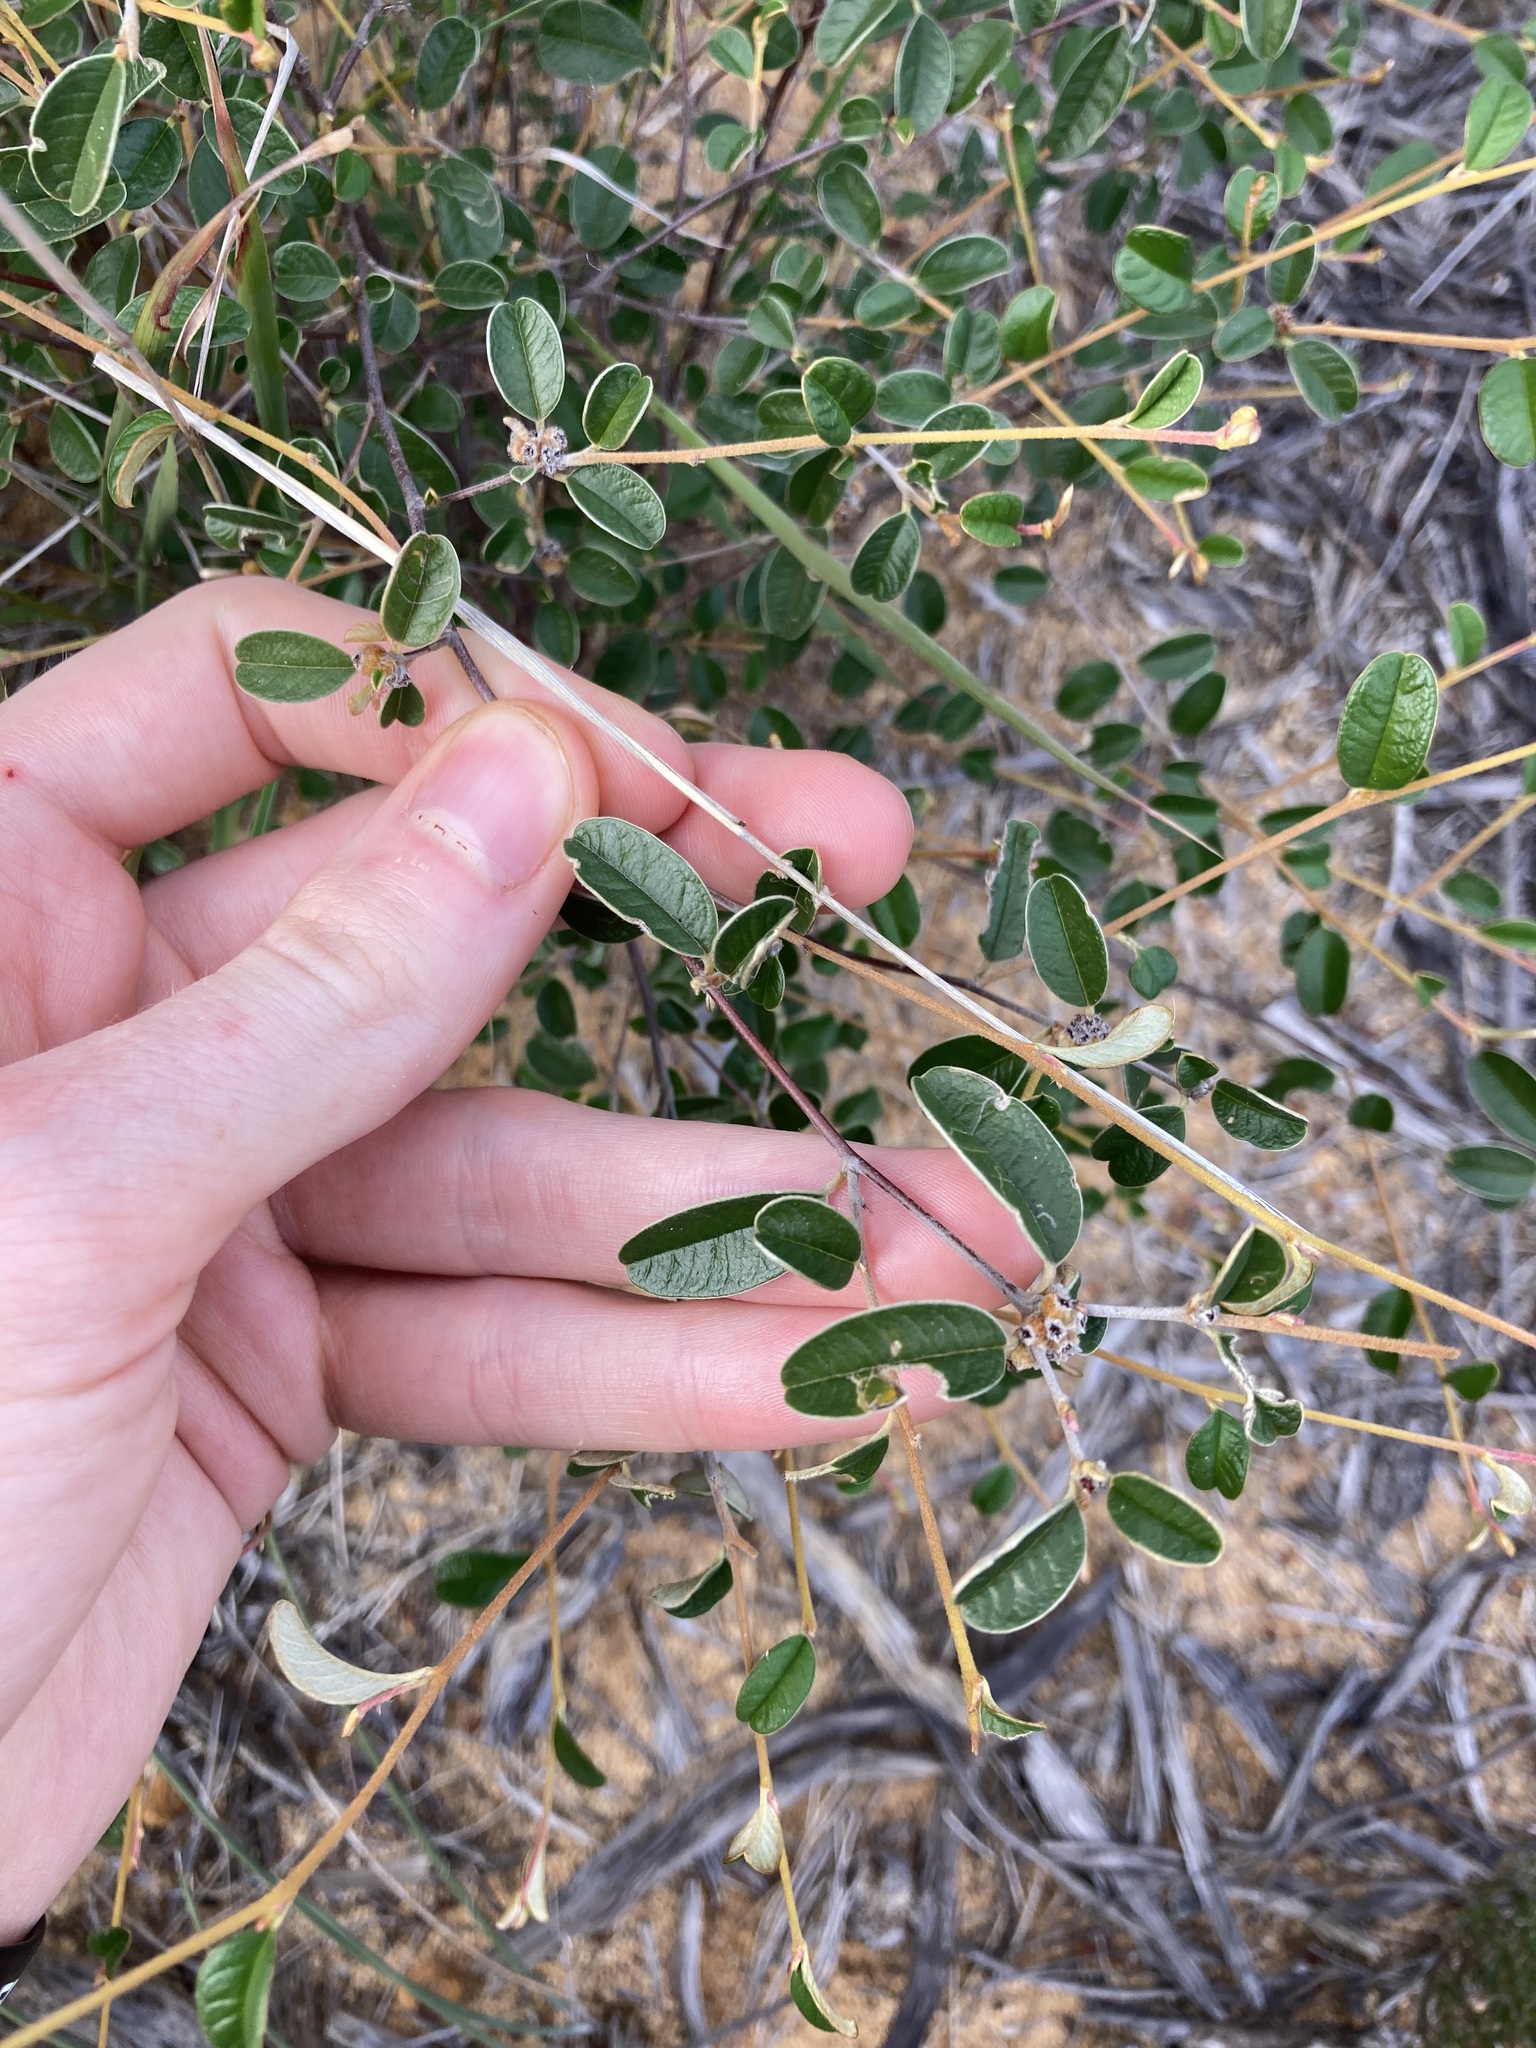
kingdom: Plantae
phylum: Tracheophyta
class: Magnoliopsida
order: Rosales
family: Rhamnaceae
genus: Stenanthemum
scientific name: Stenanthemum complicatum
